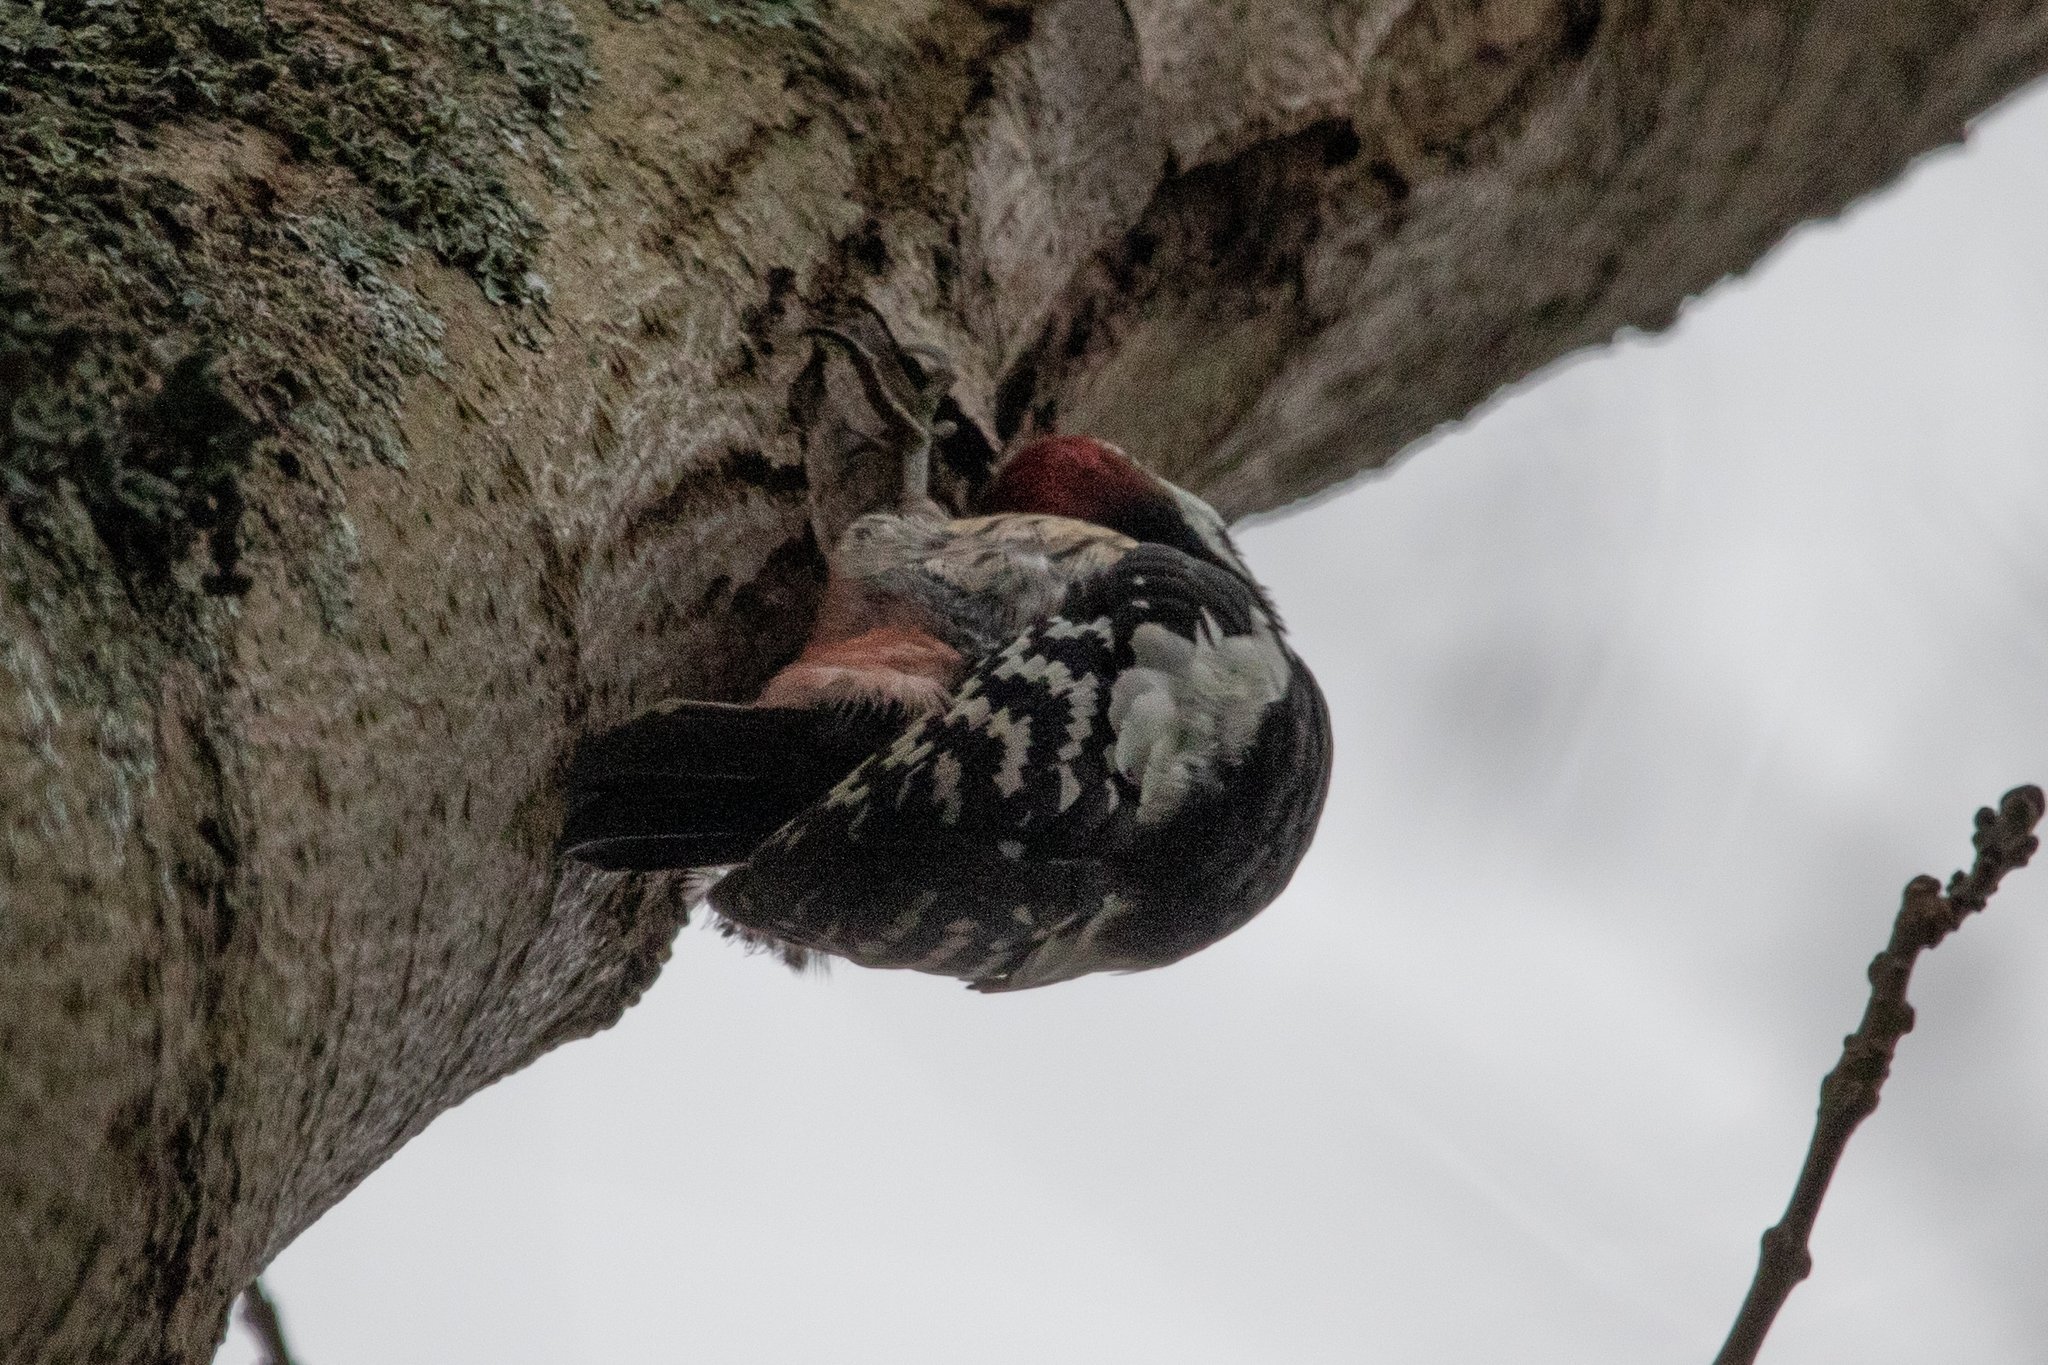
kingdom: Animalia
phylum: Chordata
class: Aves
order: Piciformes
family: Picidae
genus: Dendrocoptes
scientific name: Dendrocoptes medius
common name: Middle spotted woodpecker
